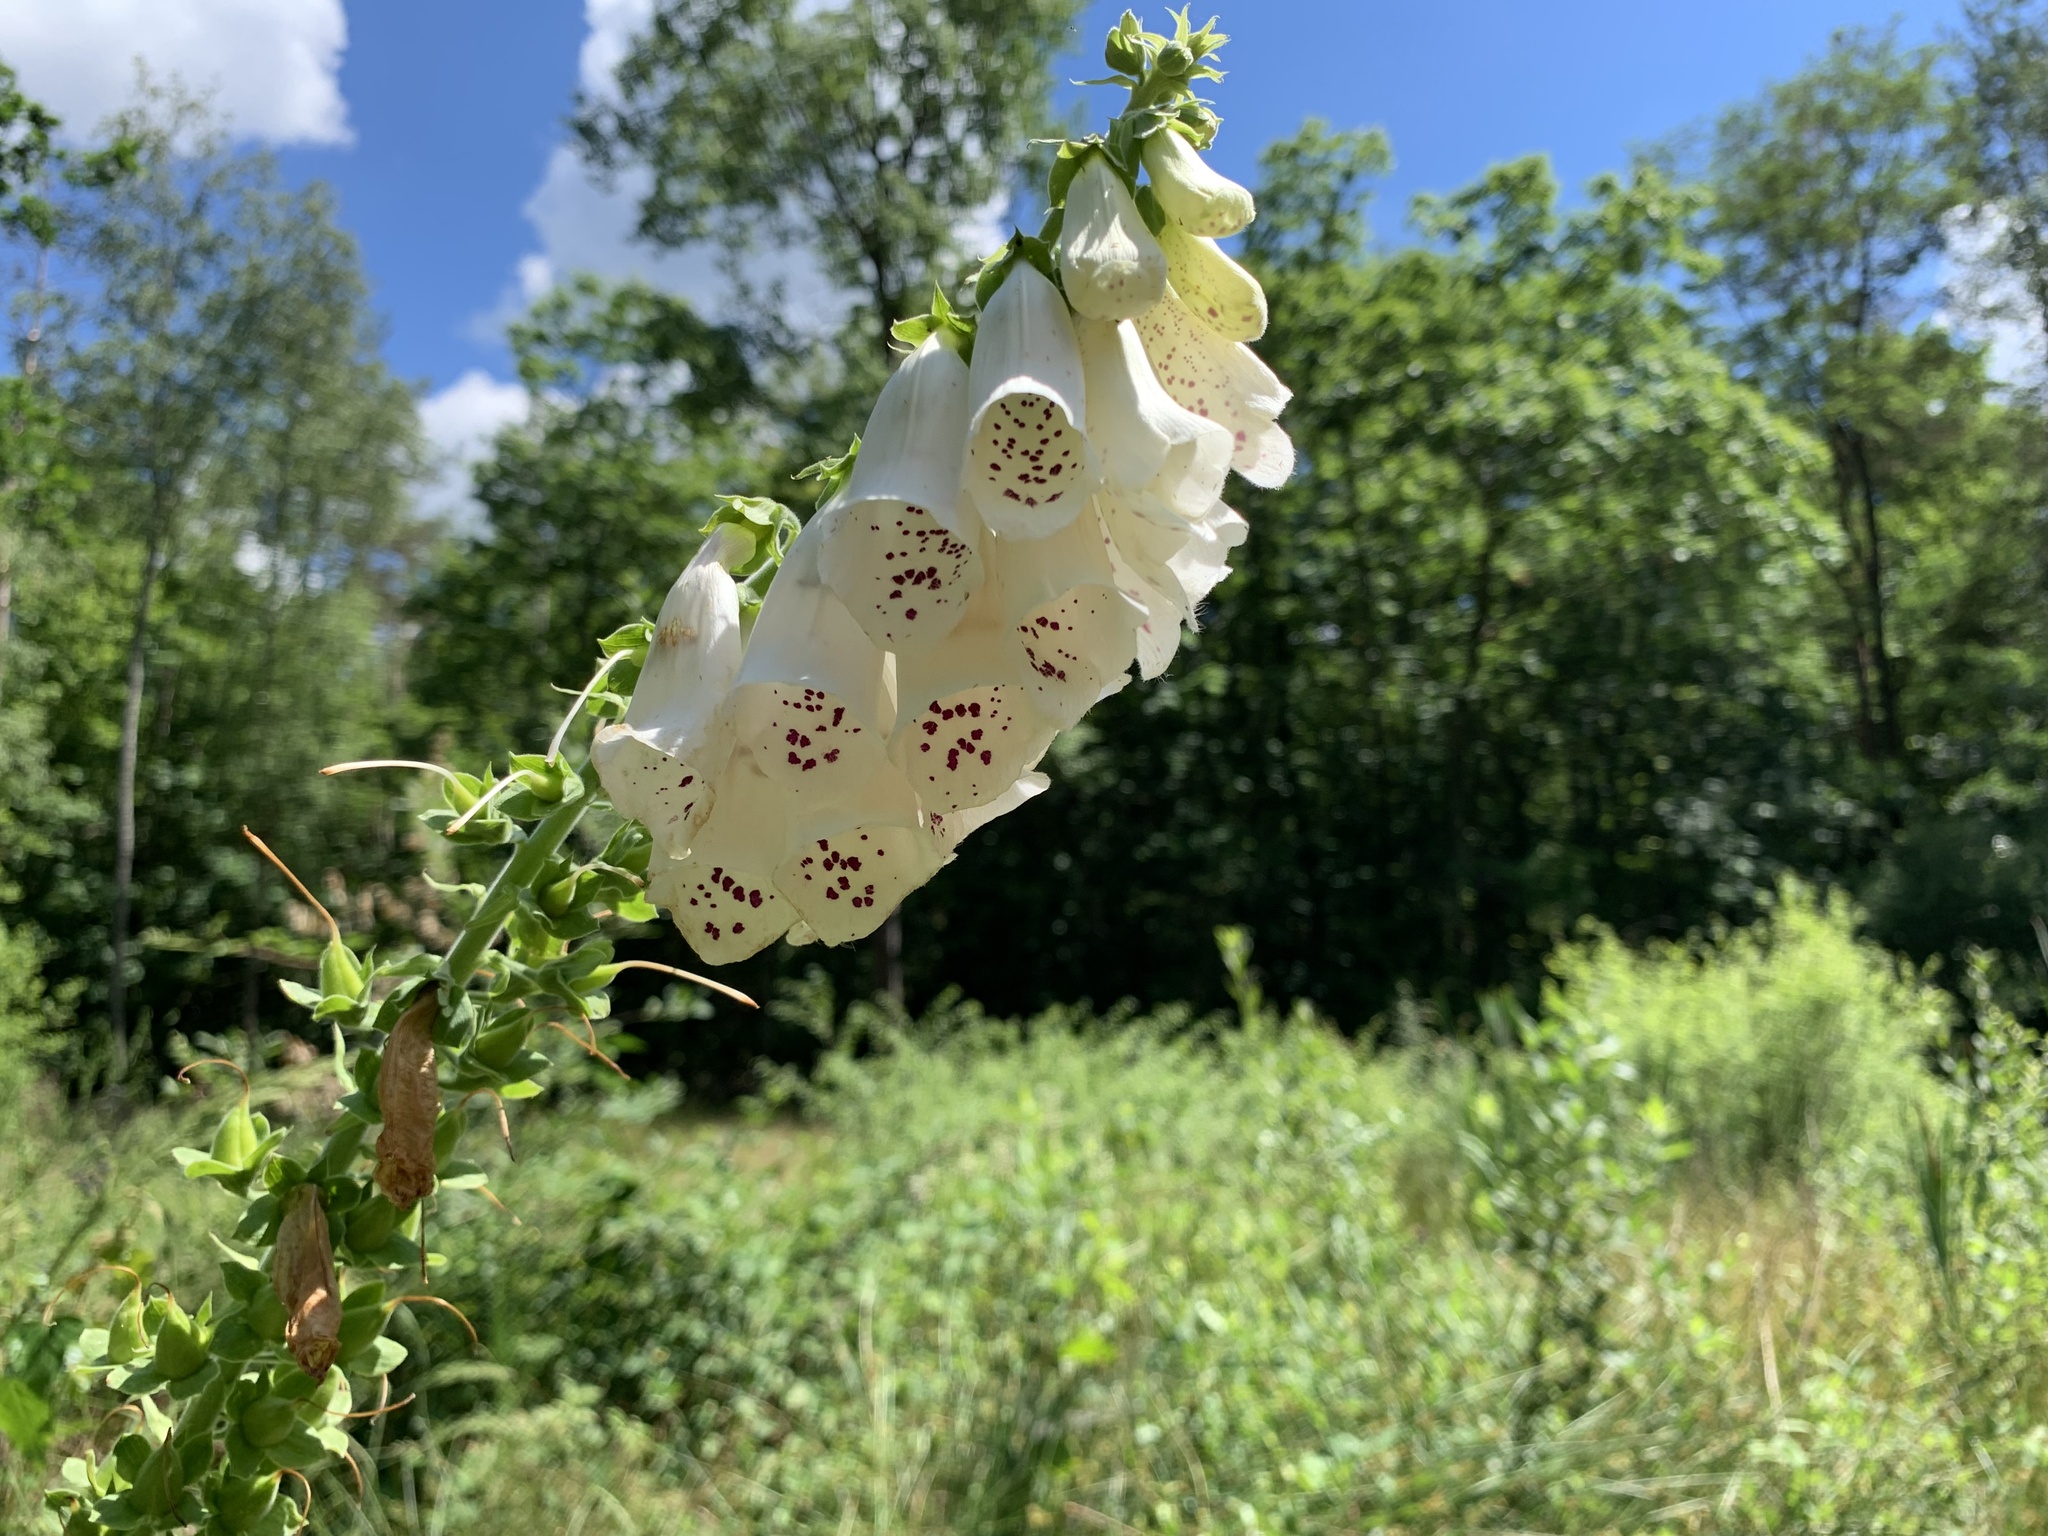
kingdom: Plantae
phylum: Tracheophyta
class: Magnoliopsida
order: Lamiales
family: Plantaginaceae
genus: Digitalis
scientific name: Digitalis purpurea
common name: Foxglove
